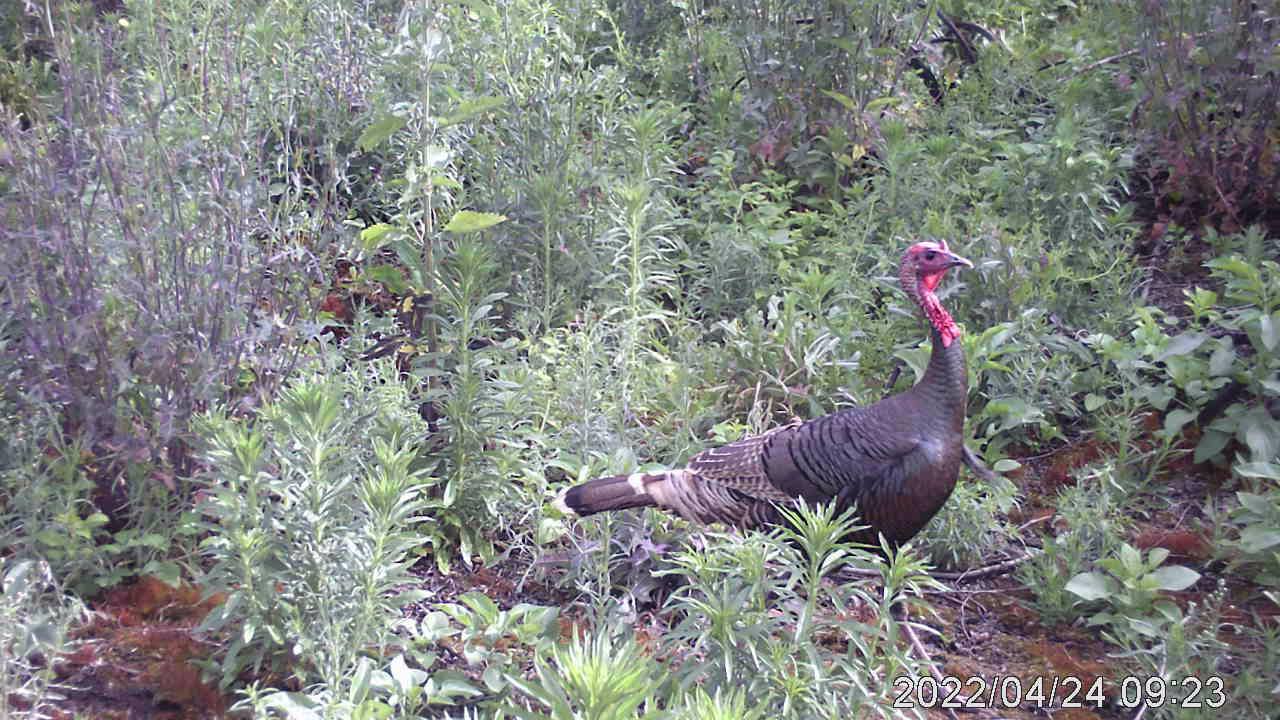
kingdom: Animalia
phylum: Chordata
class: Aves
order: Galliformes
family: Phasianidae
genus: Meleagris
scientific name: Meleagris gallopavo
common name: Wild turkey
